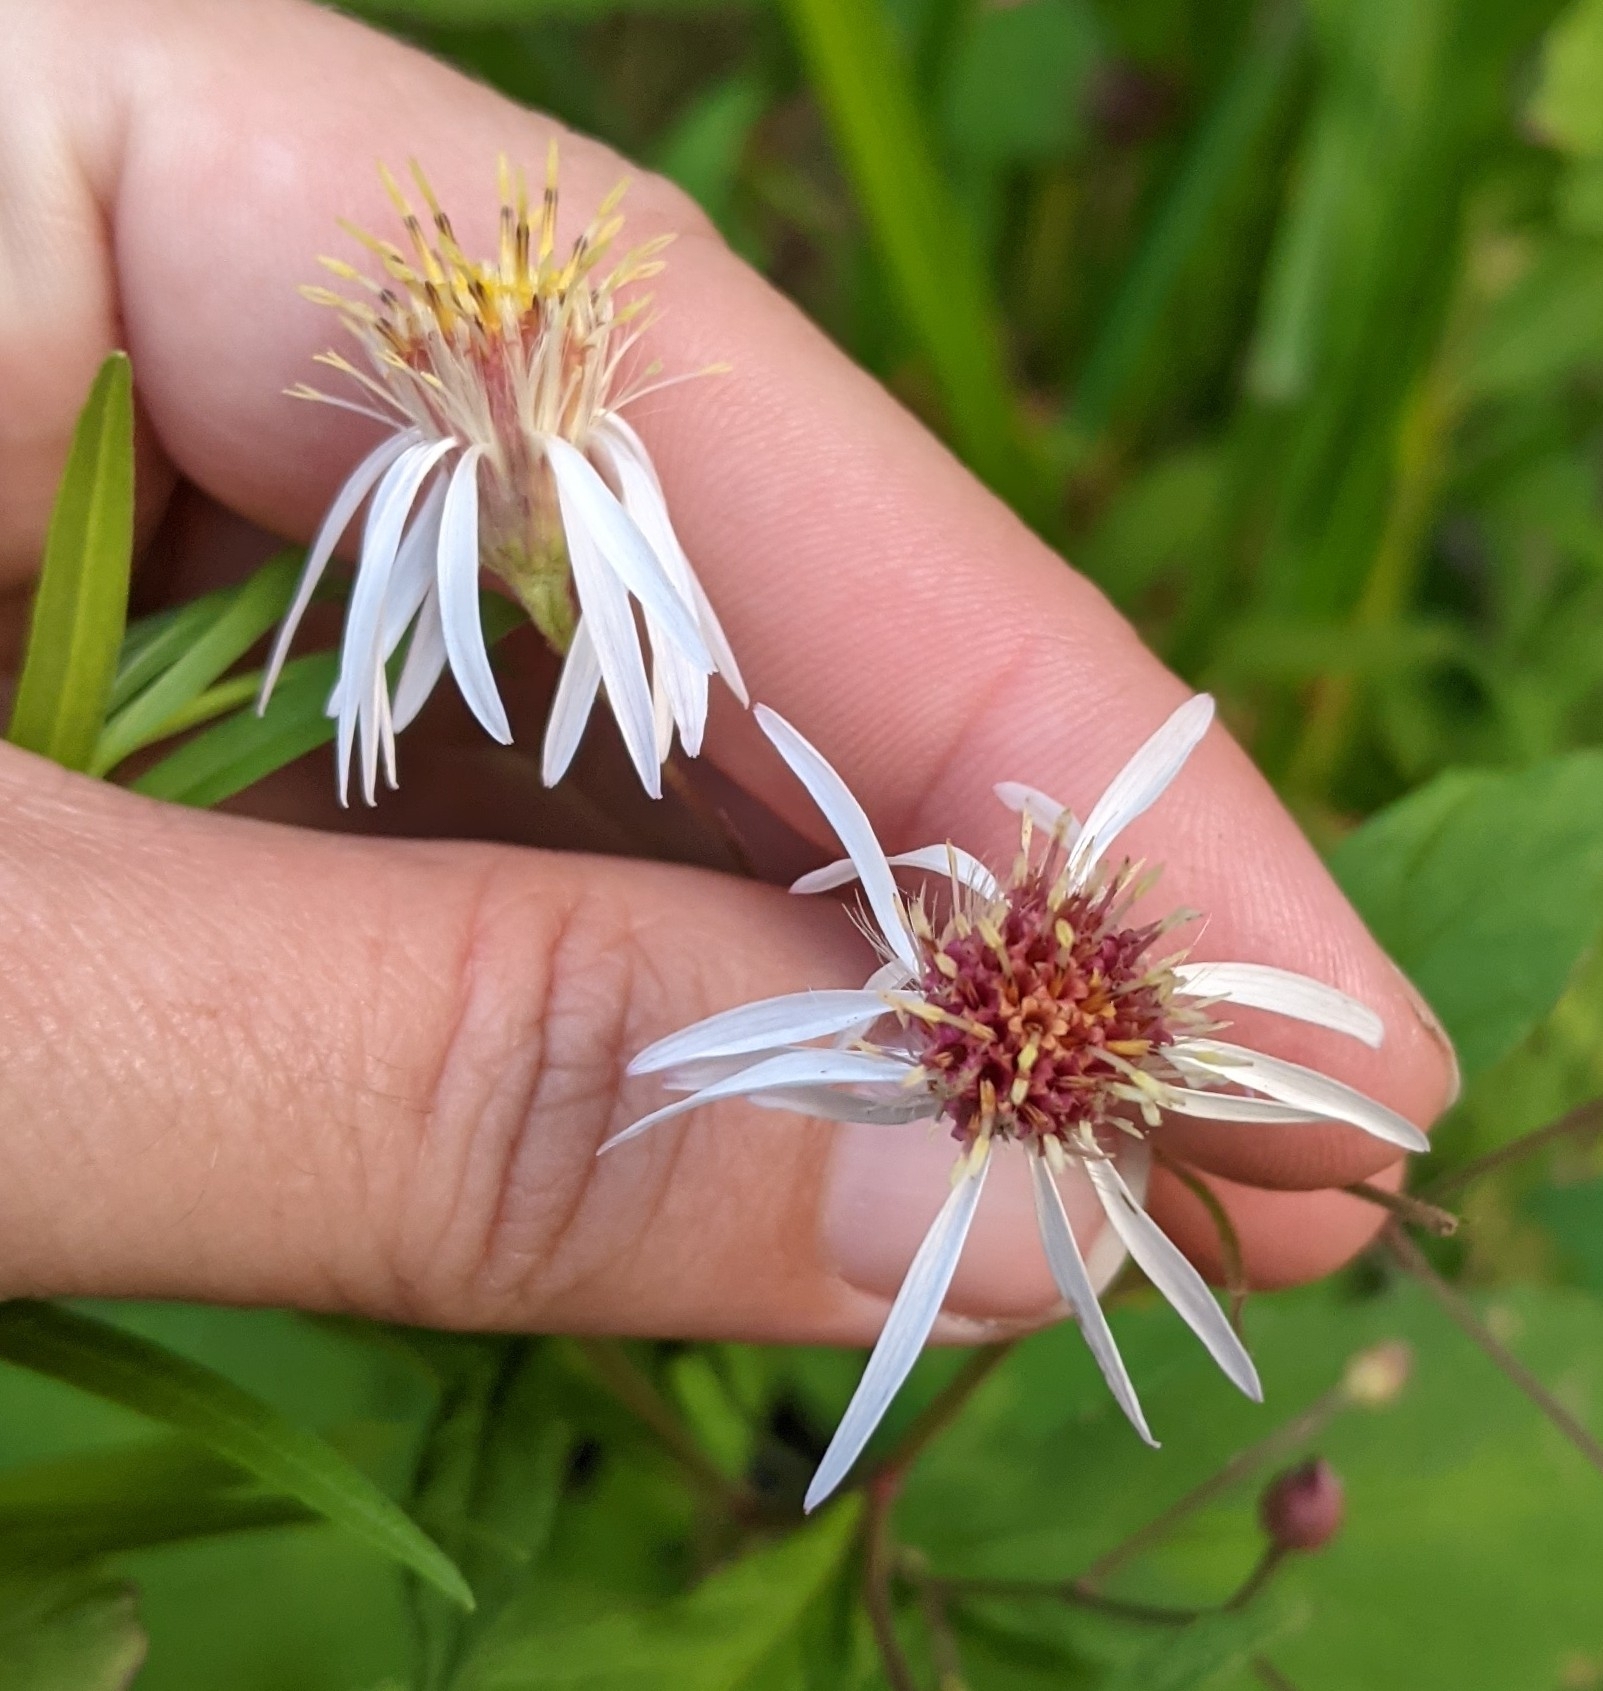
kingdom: Plantae
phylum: Tracheophyta
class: Magnoliopsida
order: Asterales
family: Asteraceae
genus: Oclemena
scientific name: Oclemena acuminata
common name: Mountain aster
